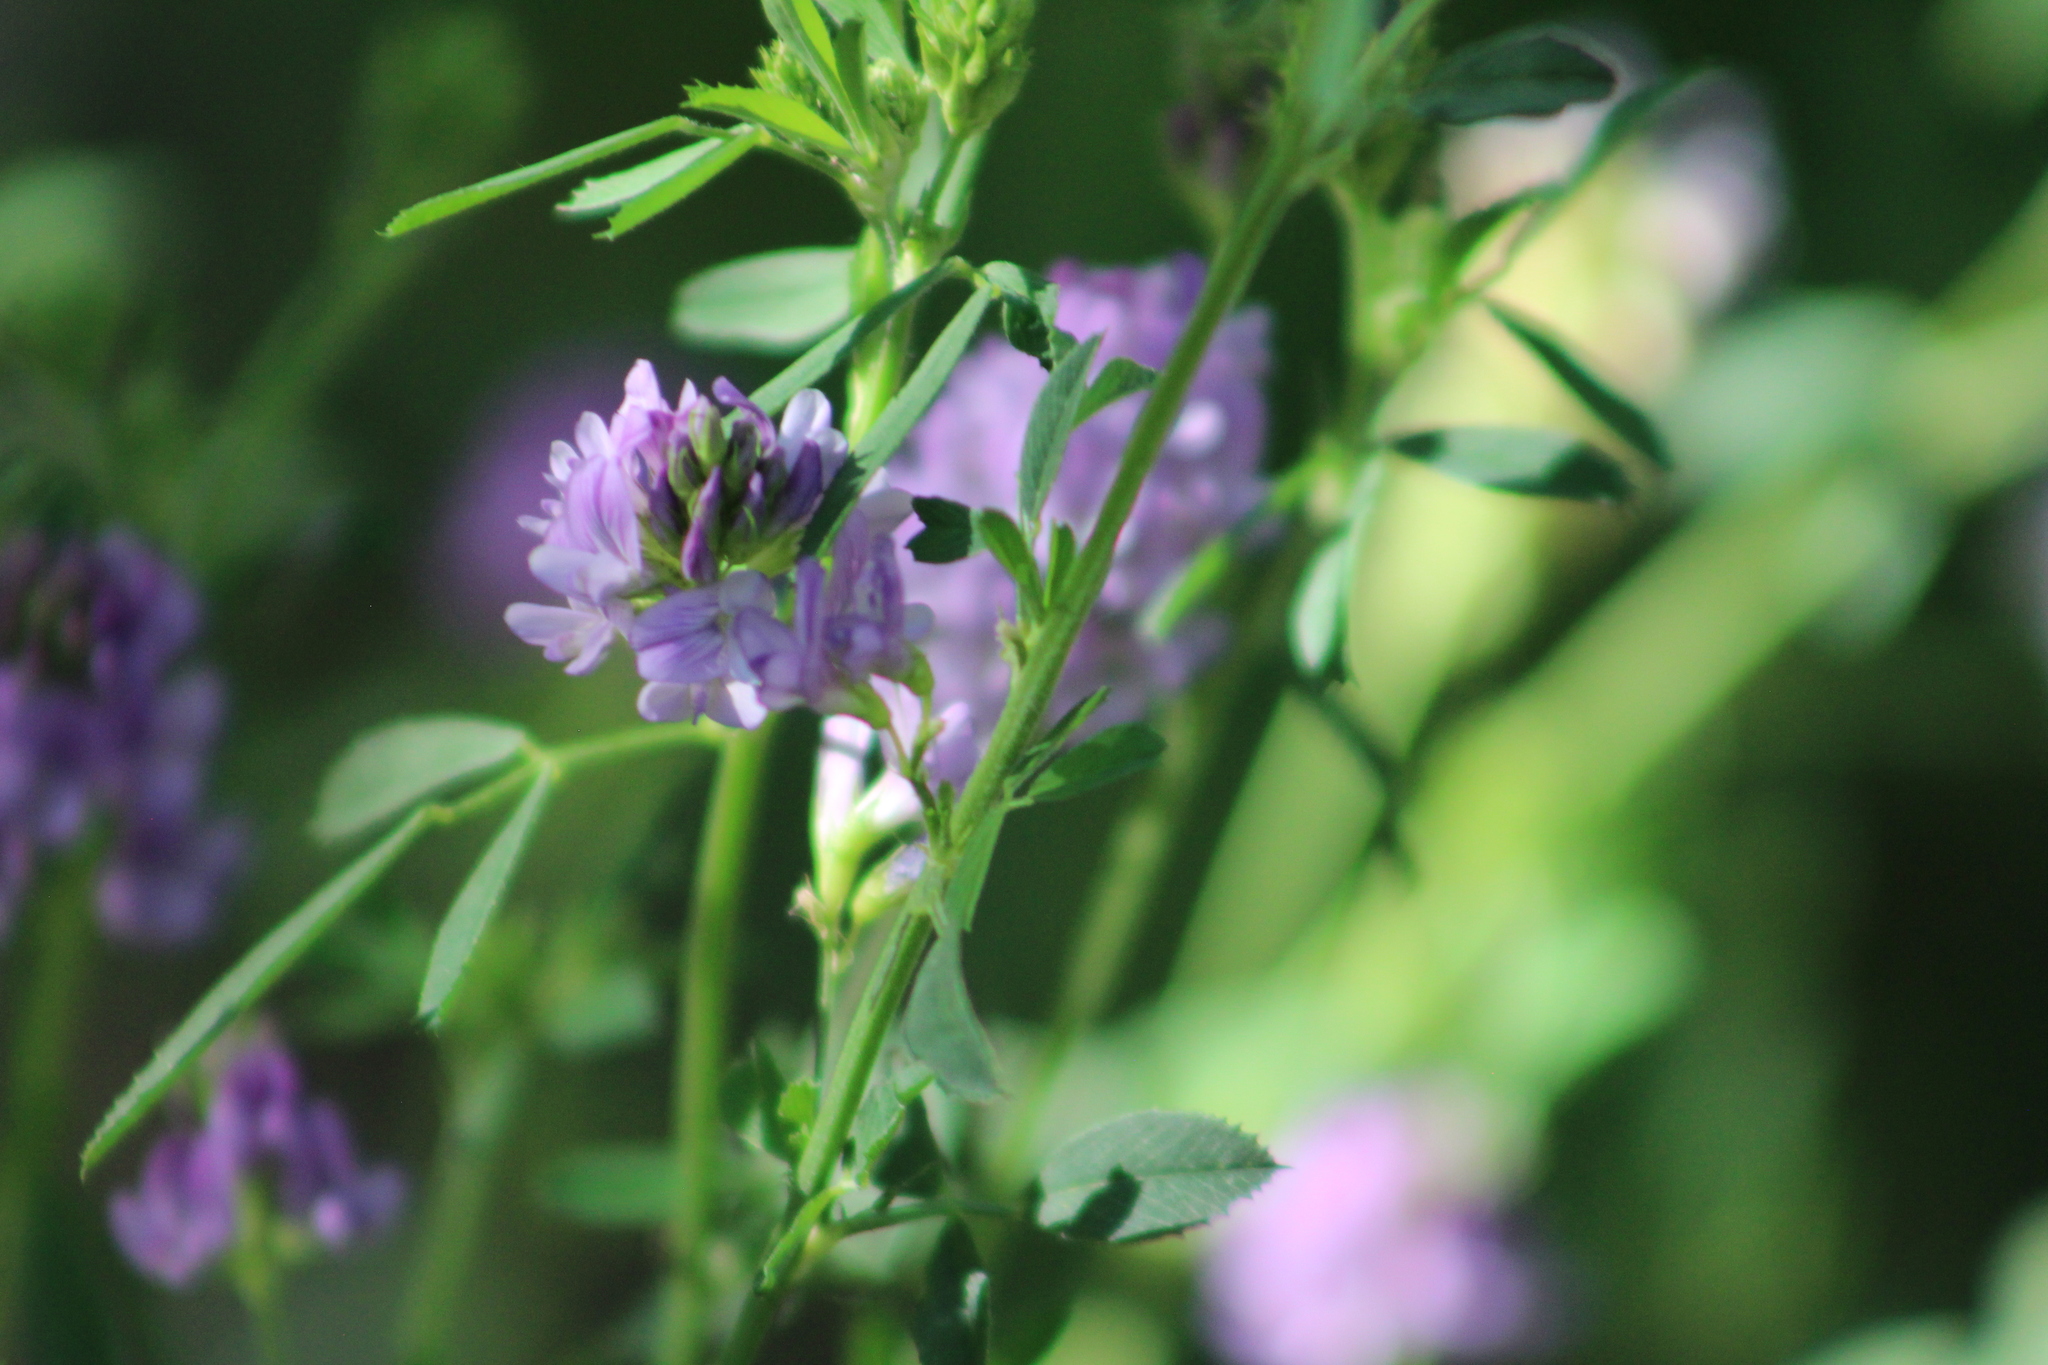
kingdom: Plantae
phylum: Tracheophyta
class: Magnoliopsida
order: Fabales
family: Fabaceae
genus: Medicago
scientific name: Medicago sativa
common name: Alfalfa
